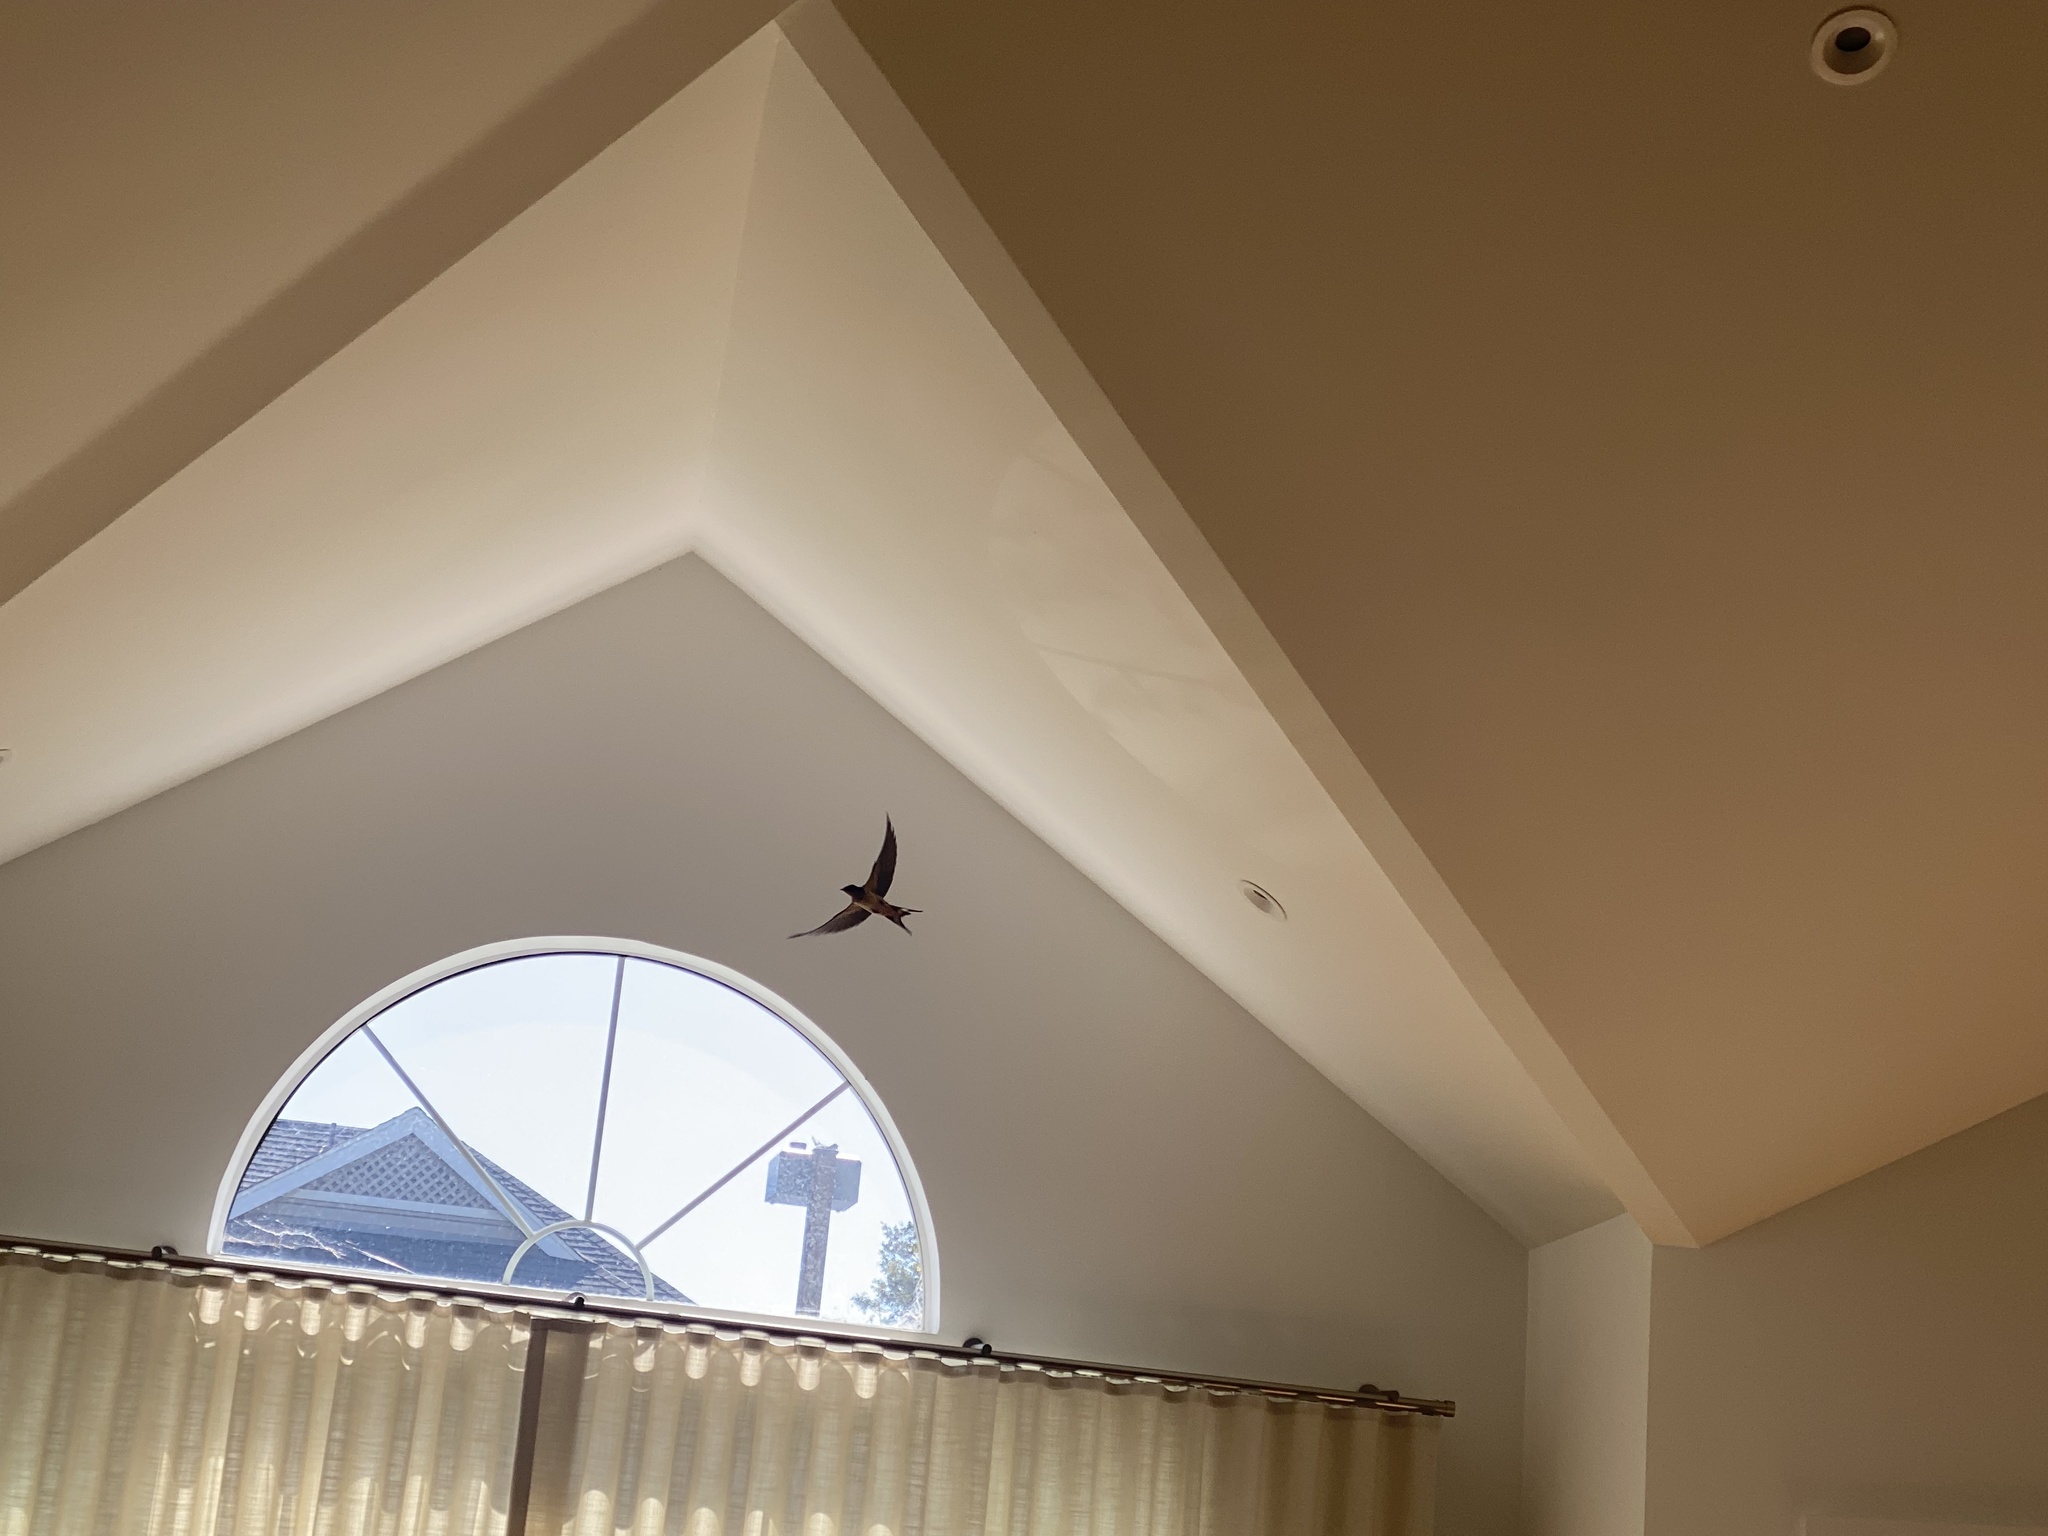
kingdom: Animalia
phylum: Chordata
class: Aves
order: Passeriformes
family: Hirundinidae
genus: Hirundo
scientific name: Hirundo rustica
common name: Barn swallow
